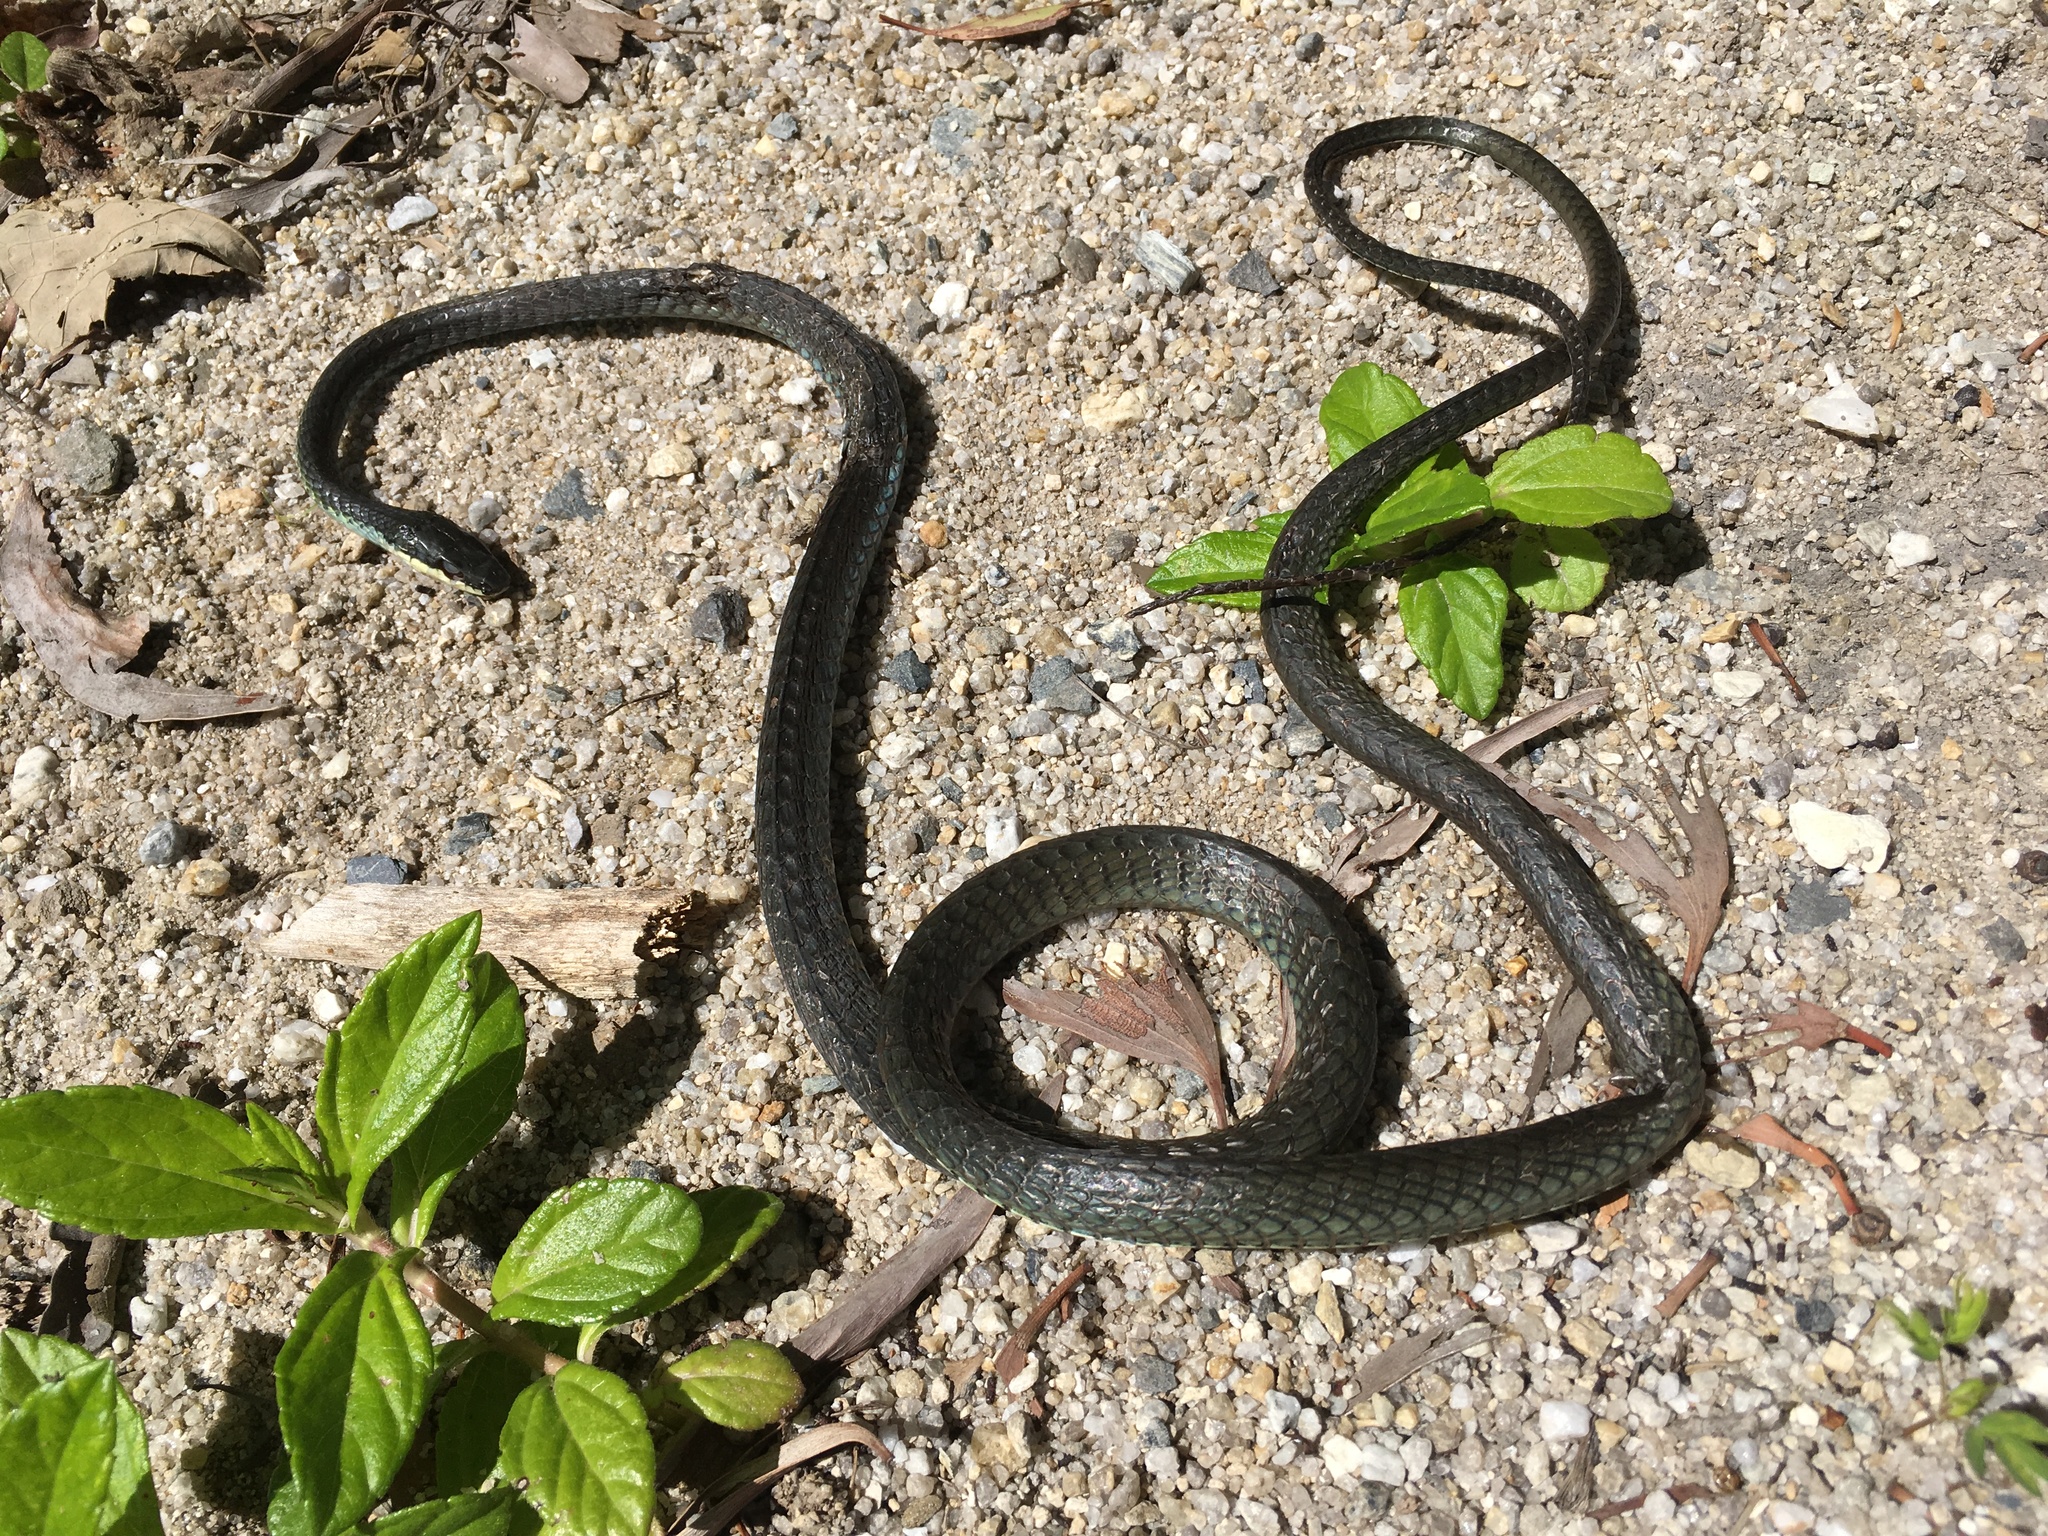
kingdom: Animalia
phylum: Chordata
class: Squamata
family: Colubridae
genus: Dendrelaphis
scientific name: Dendrelaphis calligaster
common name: Green tree snake
